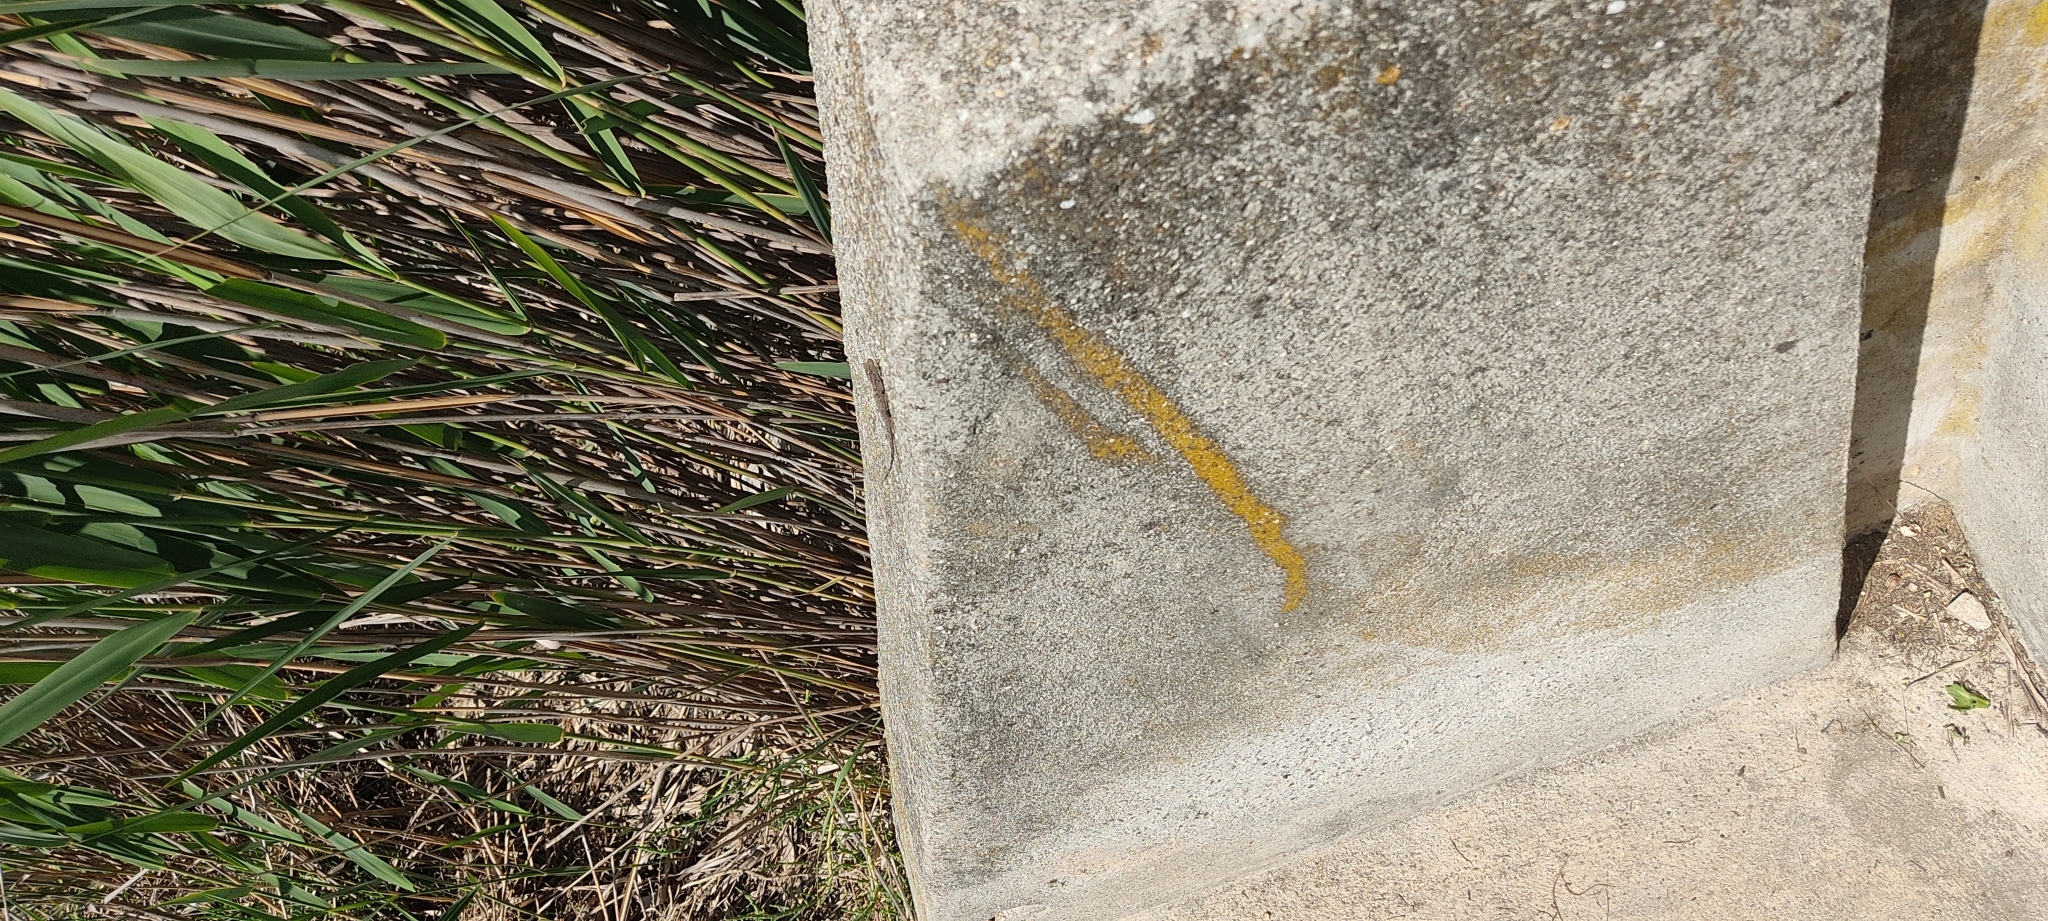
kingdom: Animalia
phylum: Chordata
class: Squamata
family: Phyllodactylidae
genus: Tarentola
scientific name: Tarentola mauritanica
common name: Moorish gecko
